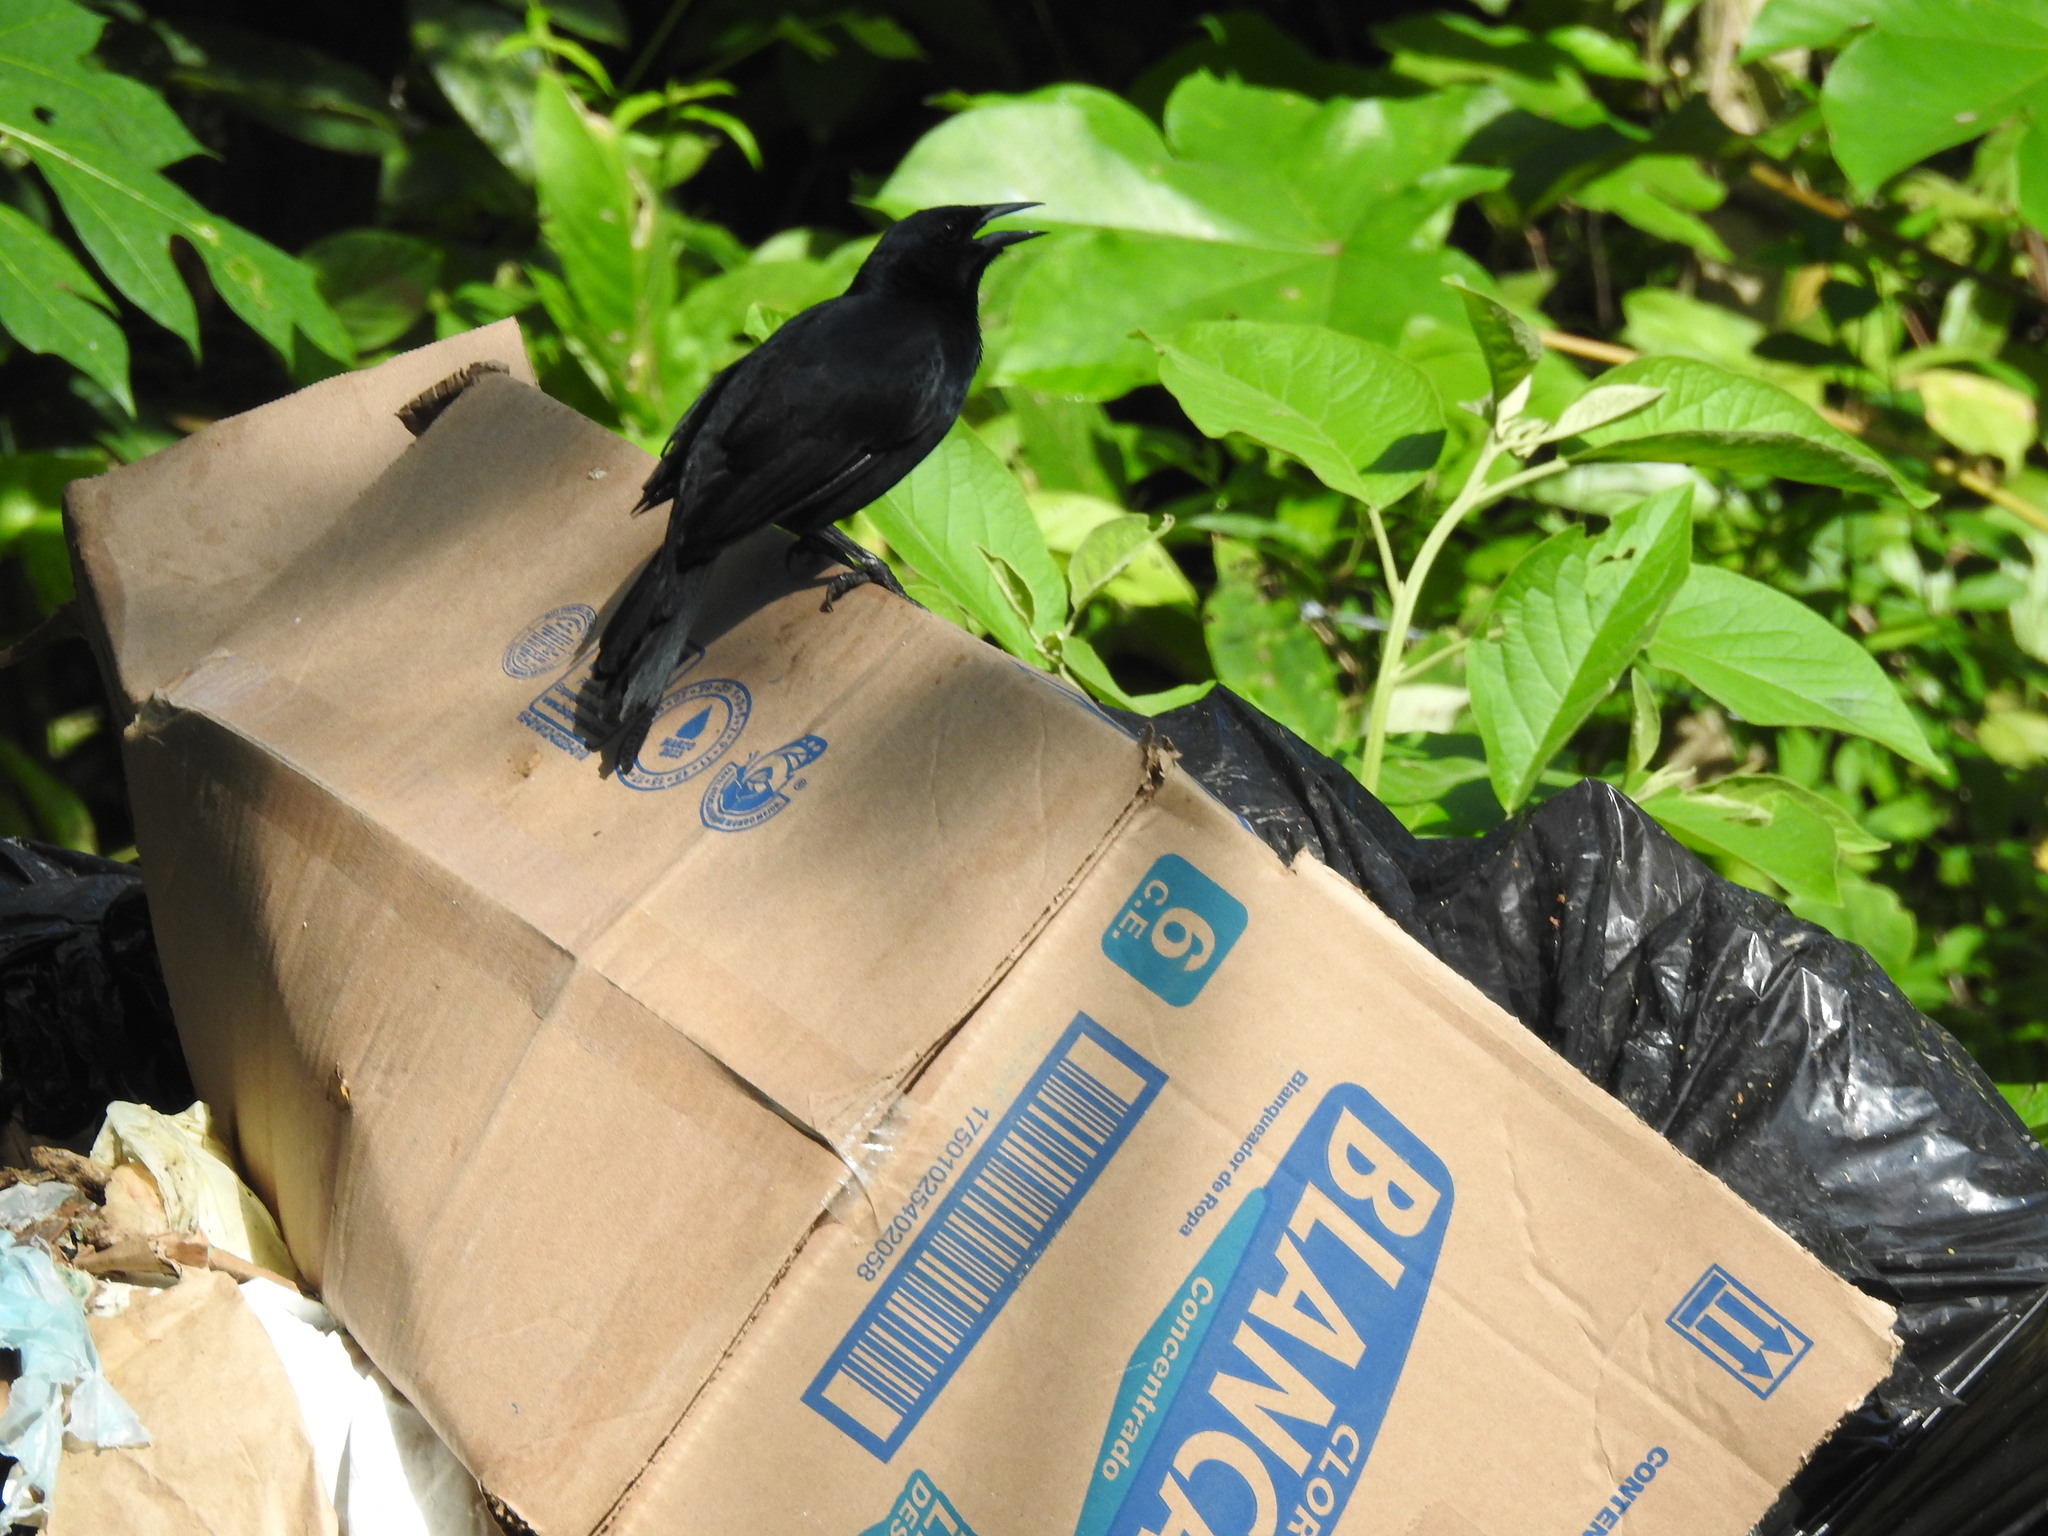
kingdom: Animalia
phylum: Chordata
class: Aves
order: Passeriformes
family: Icteridae
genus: Dives
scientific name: Dives dives
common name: Melodious blackbird
